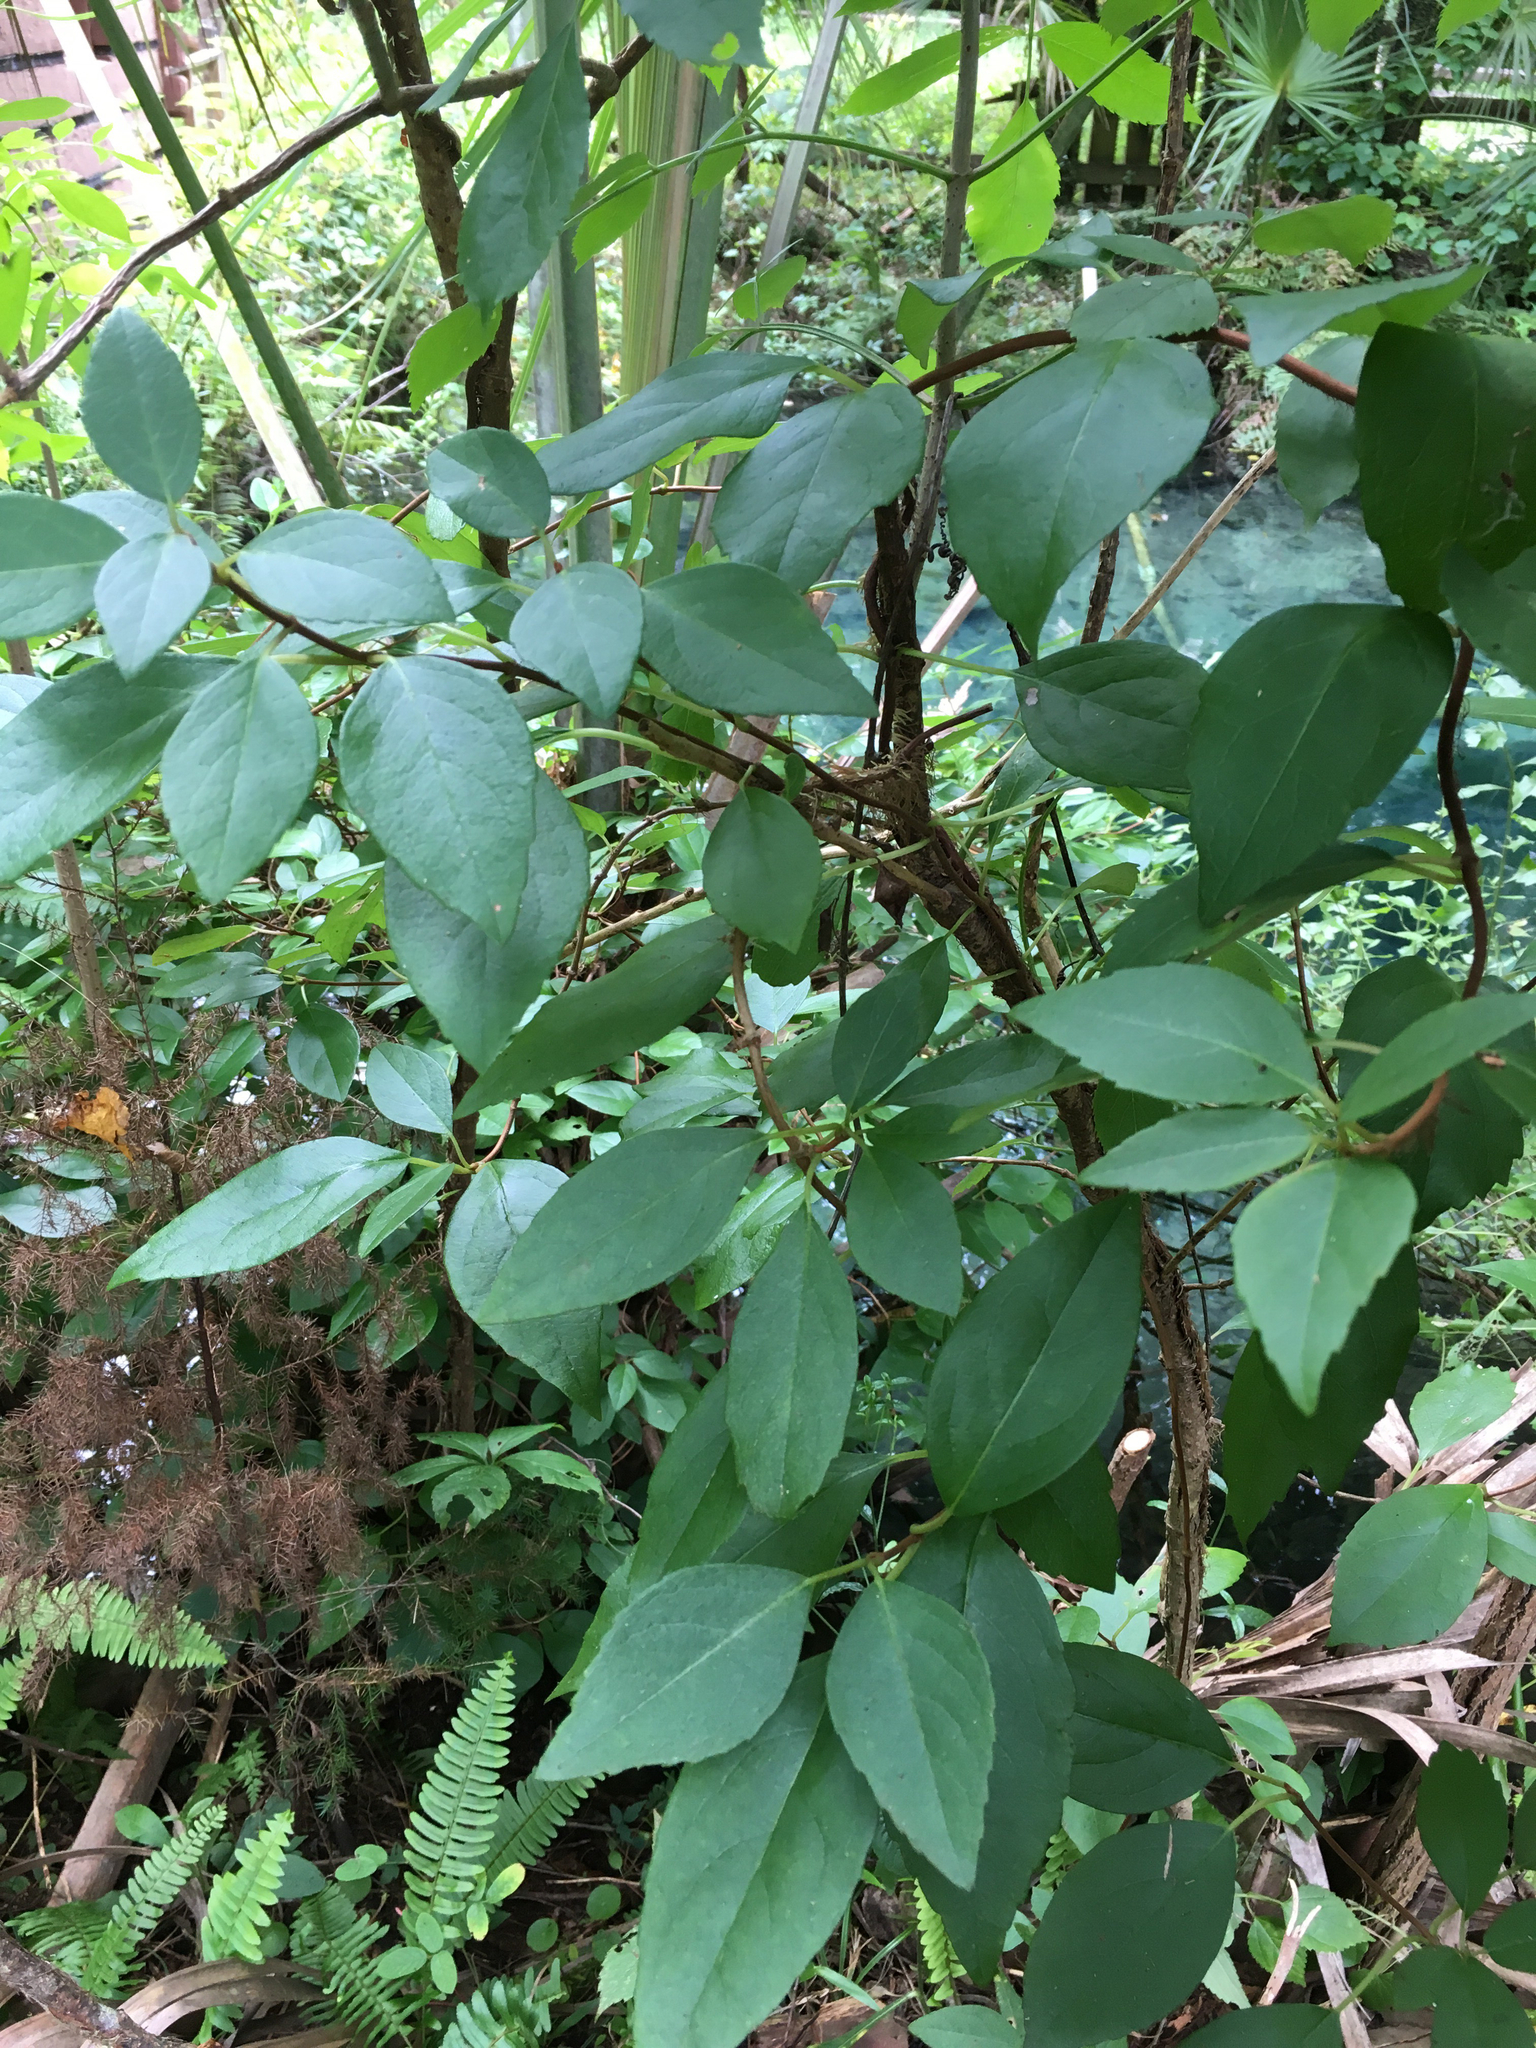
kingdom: Plantae
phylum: Tracheophyta
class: Magnoliopsida
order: Cornales
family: Hydrangeaceae
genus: Hydrangea
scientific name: Hydrangea barbara
